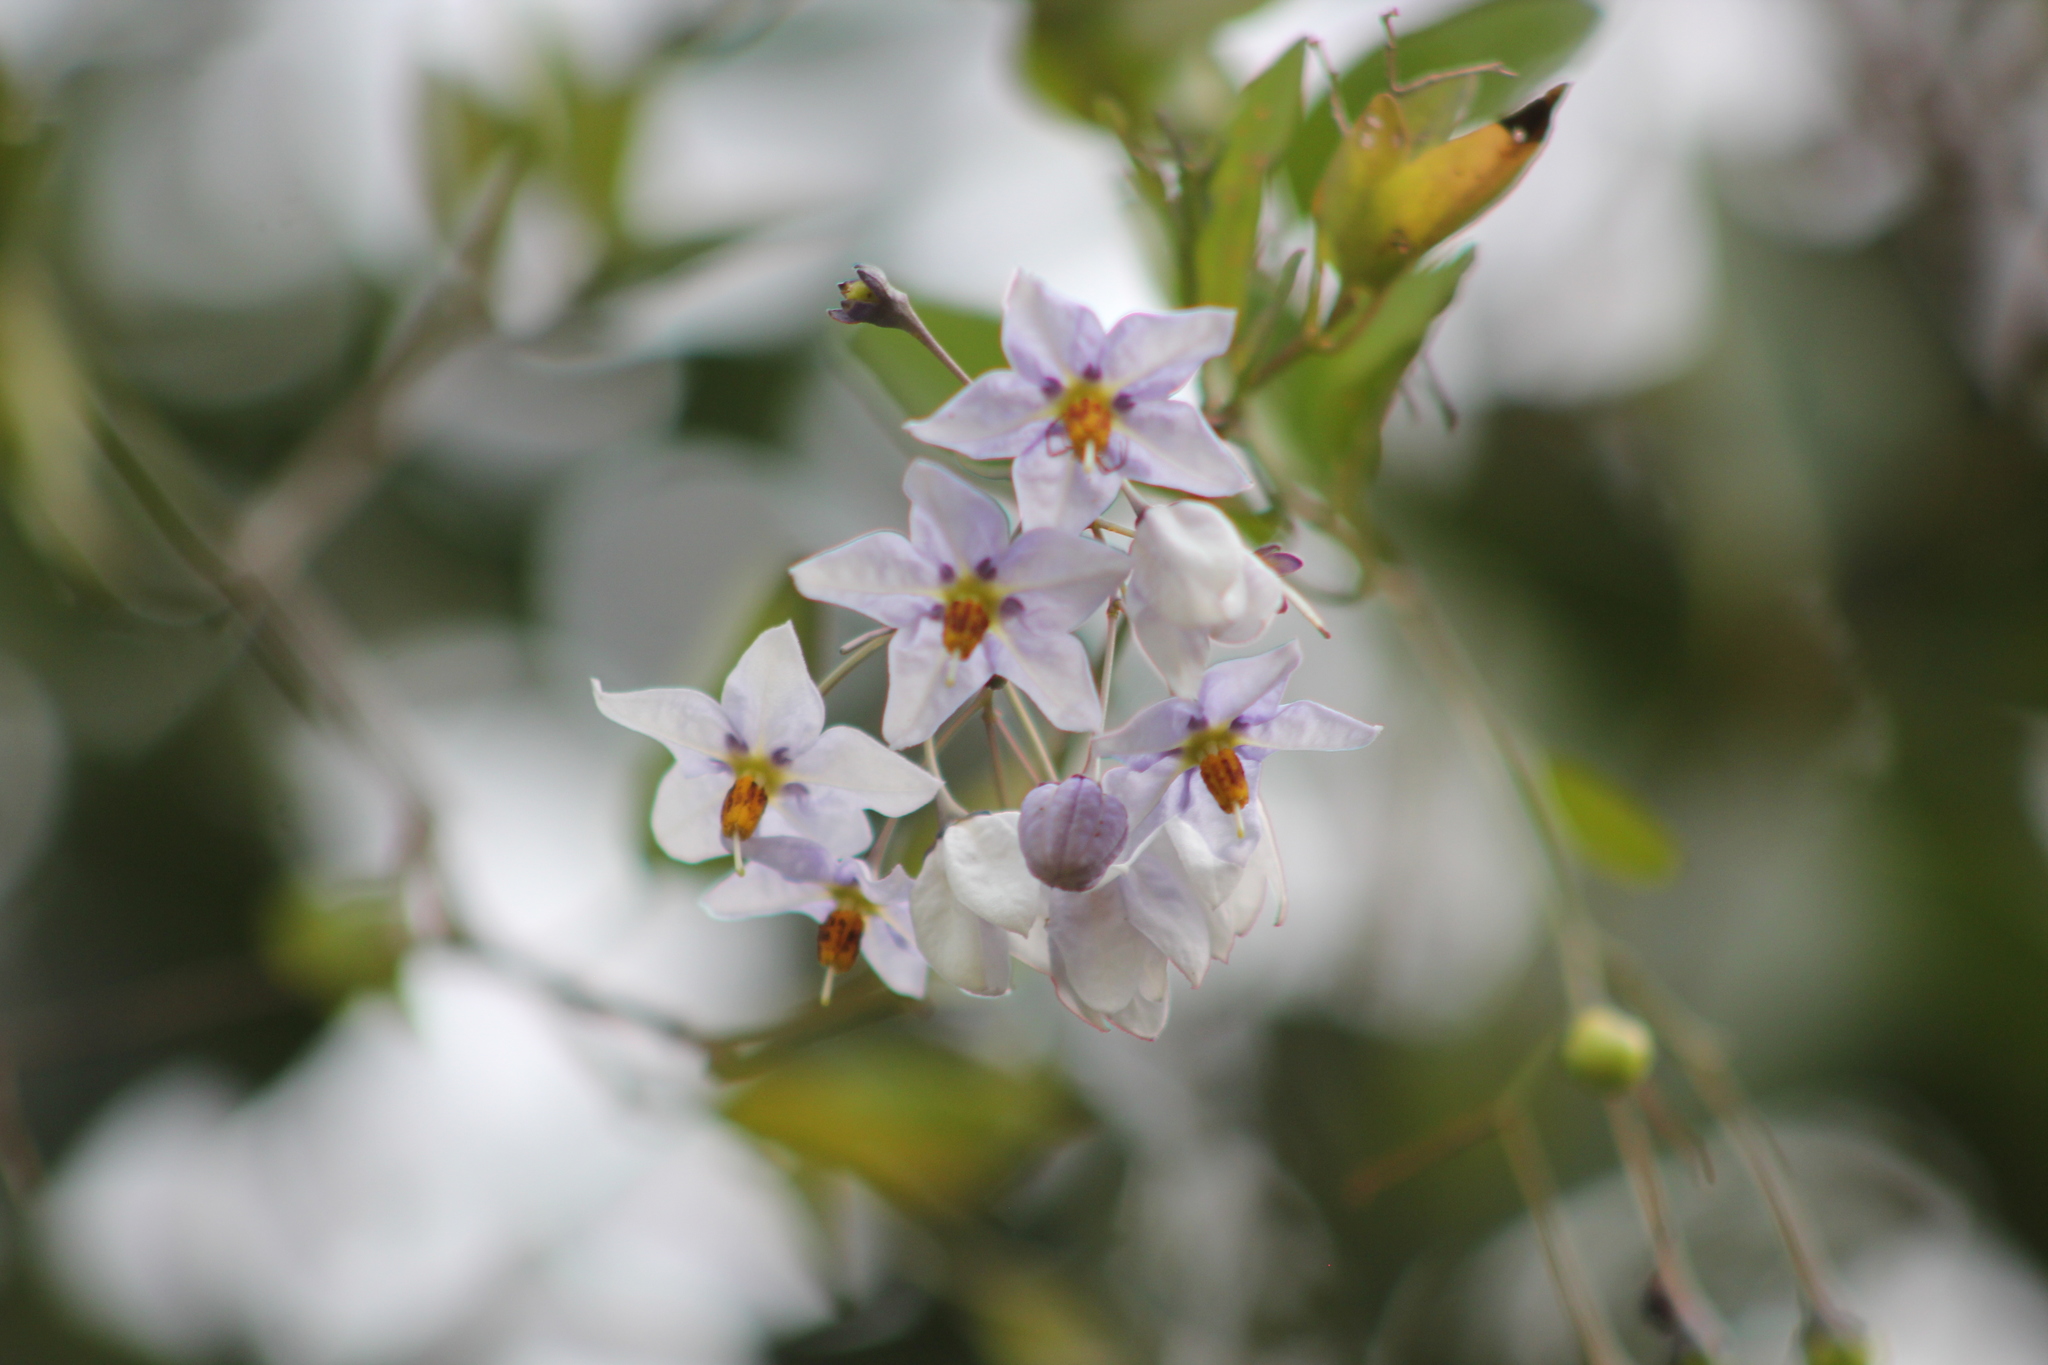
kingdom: Plantae
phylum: Tracheophyta
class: Magnoliopsida
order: Solanales
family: Solanaceae
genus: Solanum
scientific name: Solanum laxum
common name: Nightshade
